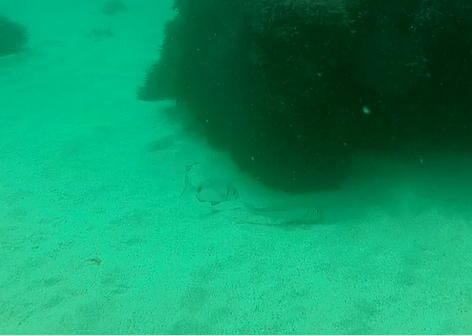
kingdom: Animalia
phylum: Chordata
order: Perciformes
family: Mullidae
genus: Mullus
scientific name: Mullus
